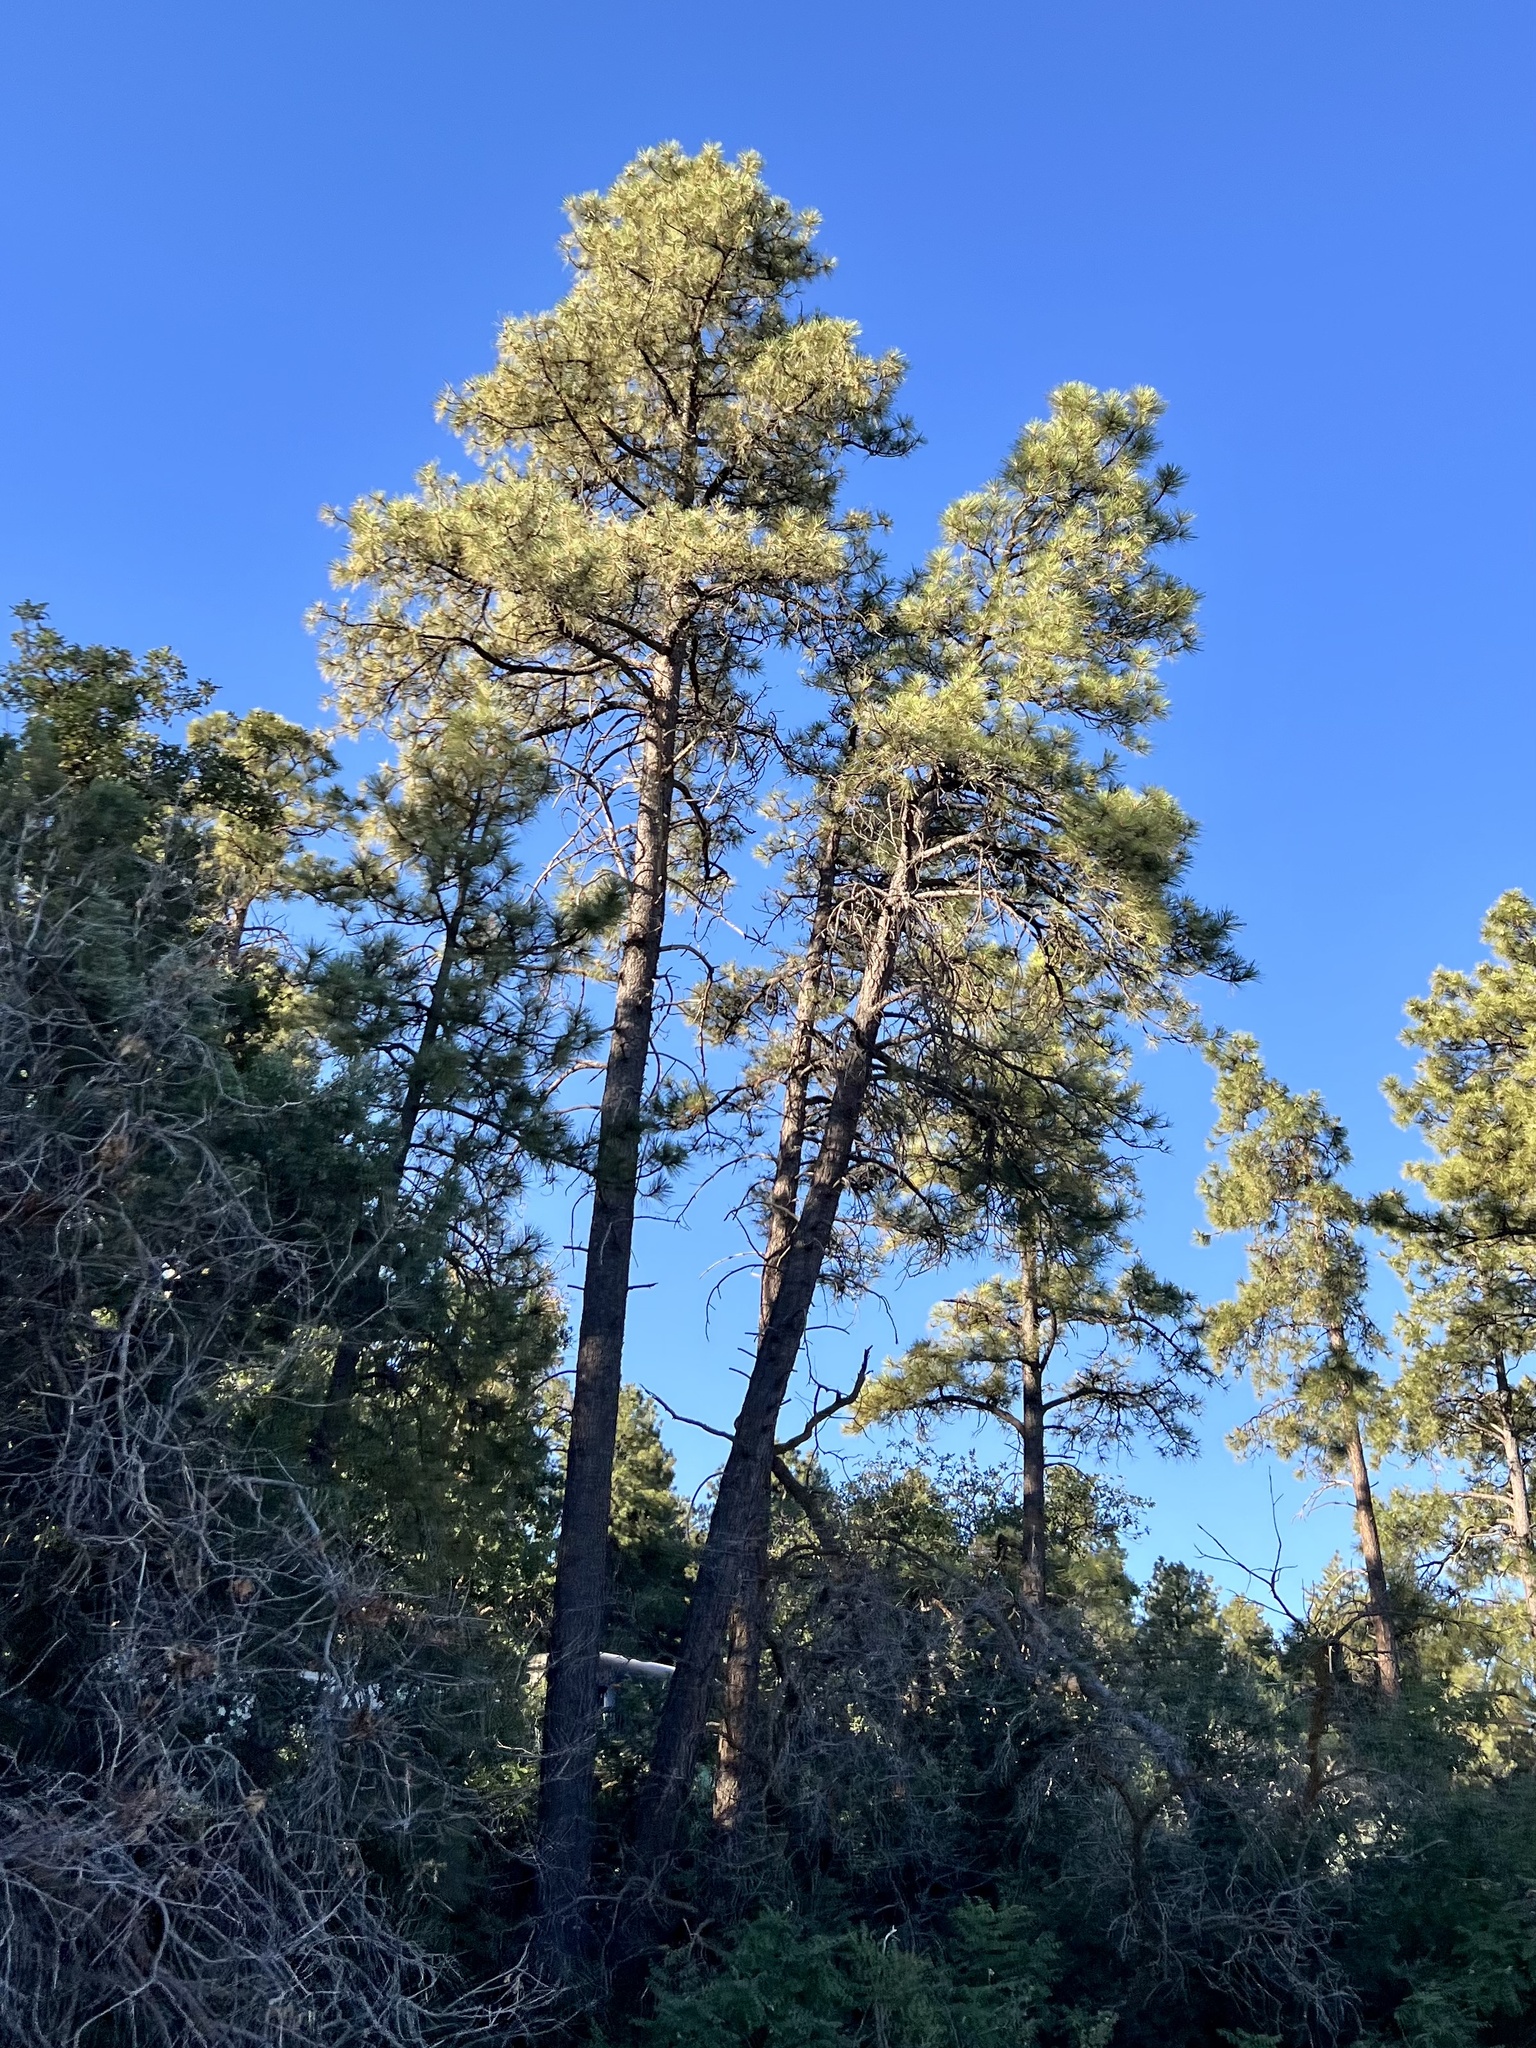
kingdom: Plantae
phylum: Tracheophyta
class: Pinopsida
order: Pinales
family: Pinaceae
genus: Pinus
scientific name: Pinus ponderosa
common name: Western yellow-pine
